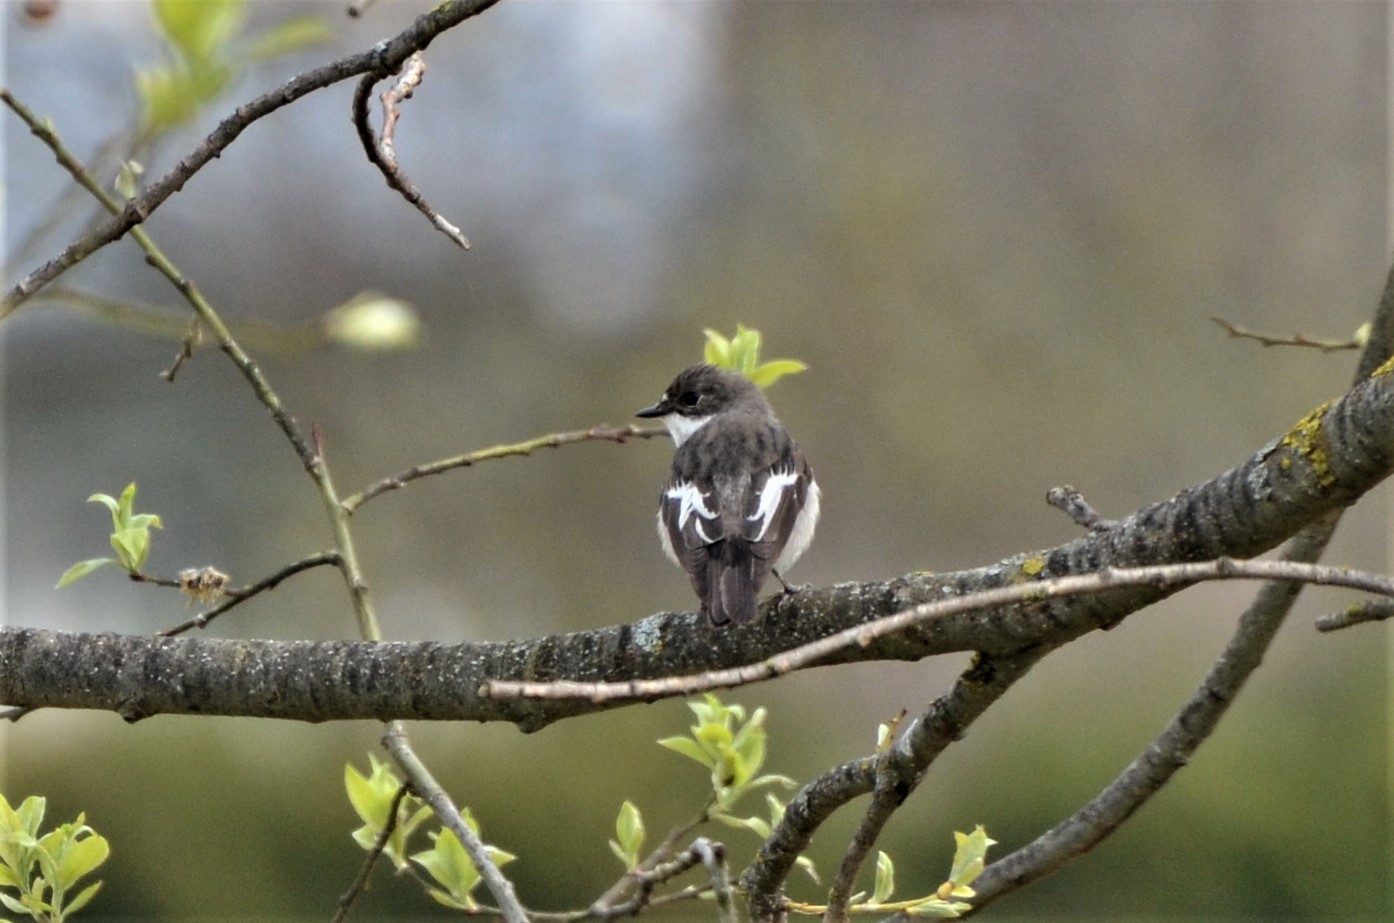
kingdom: Animalia
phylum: Chordata
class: Aves
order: Passeriformes
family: Muscicapidae
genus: Ficedula
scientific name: Ficedula hypoleuca
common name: European pied flycatcher
